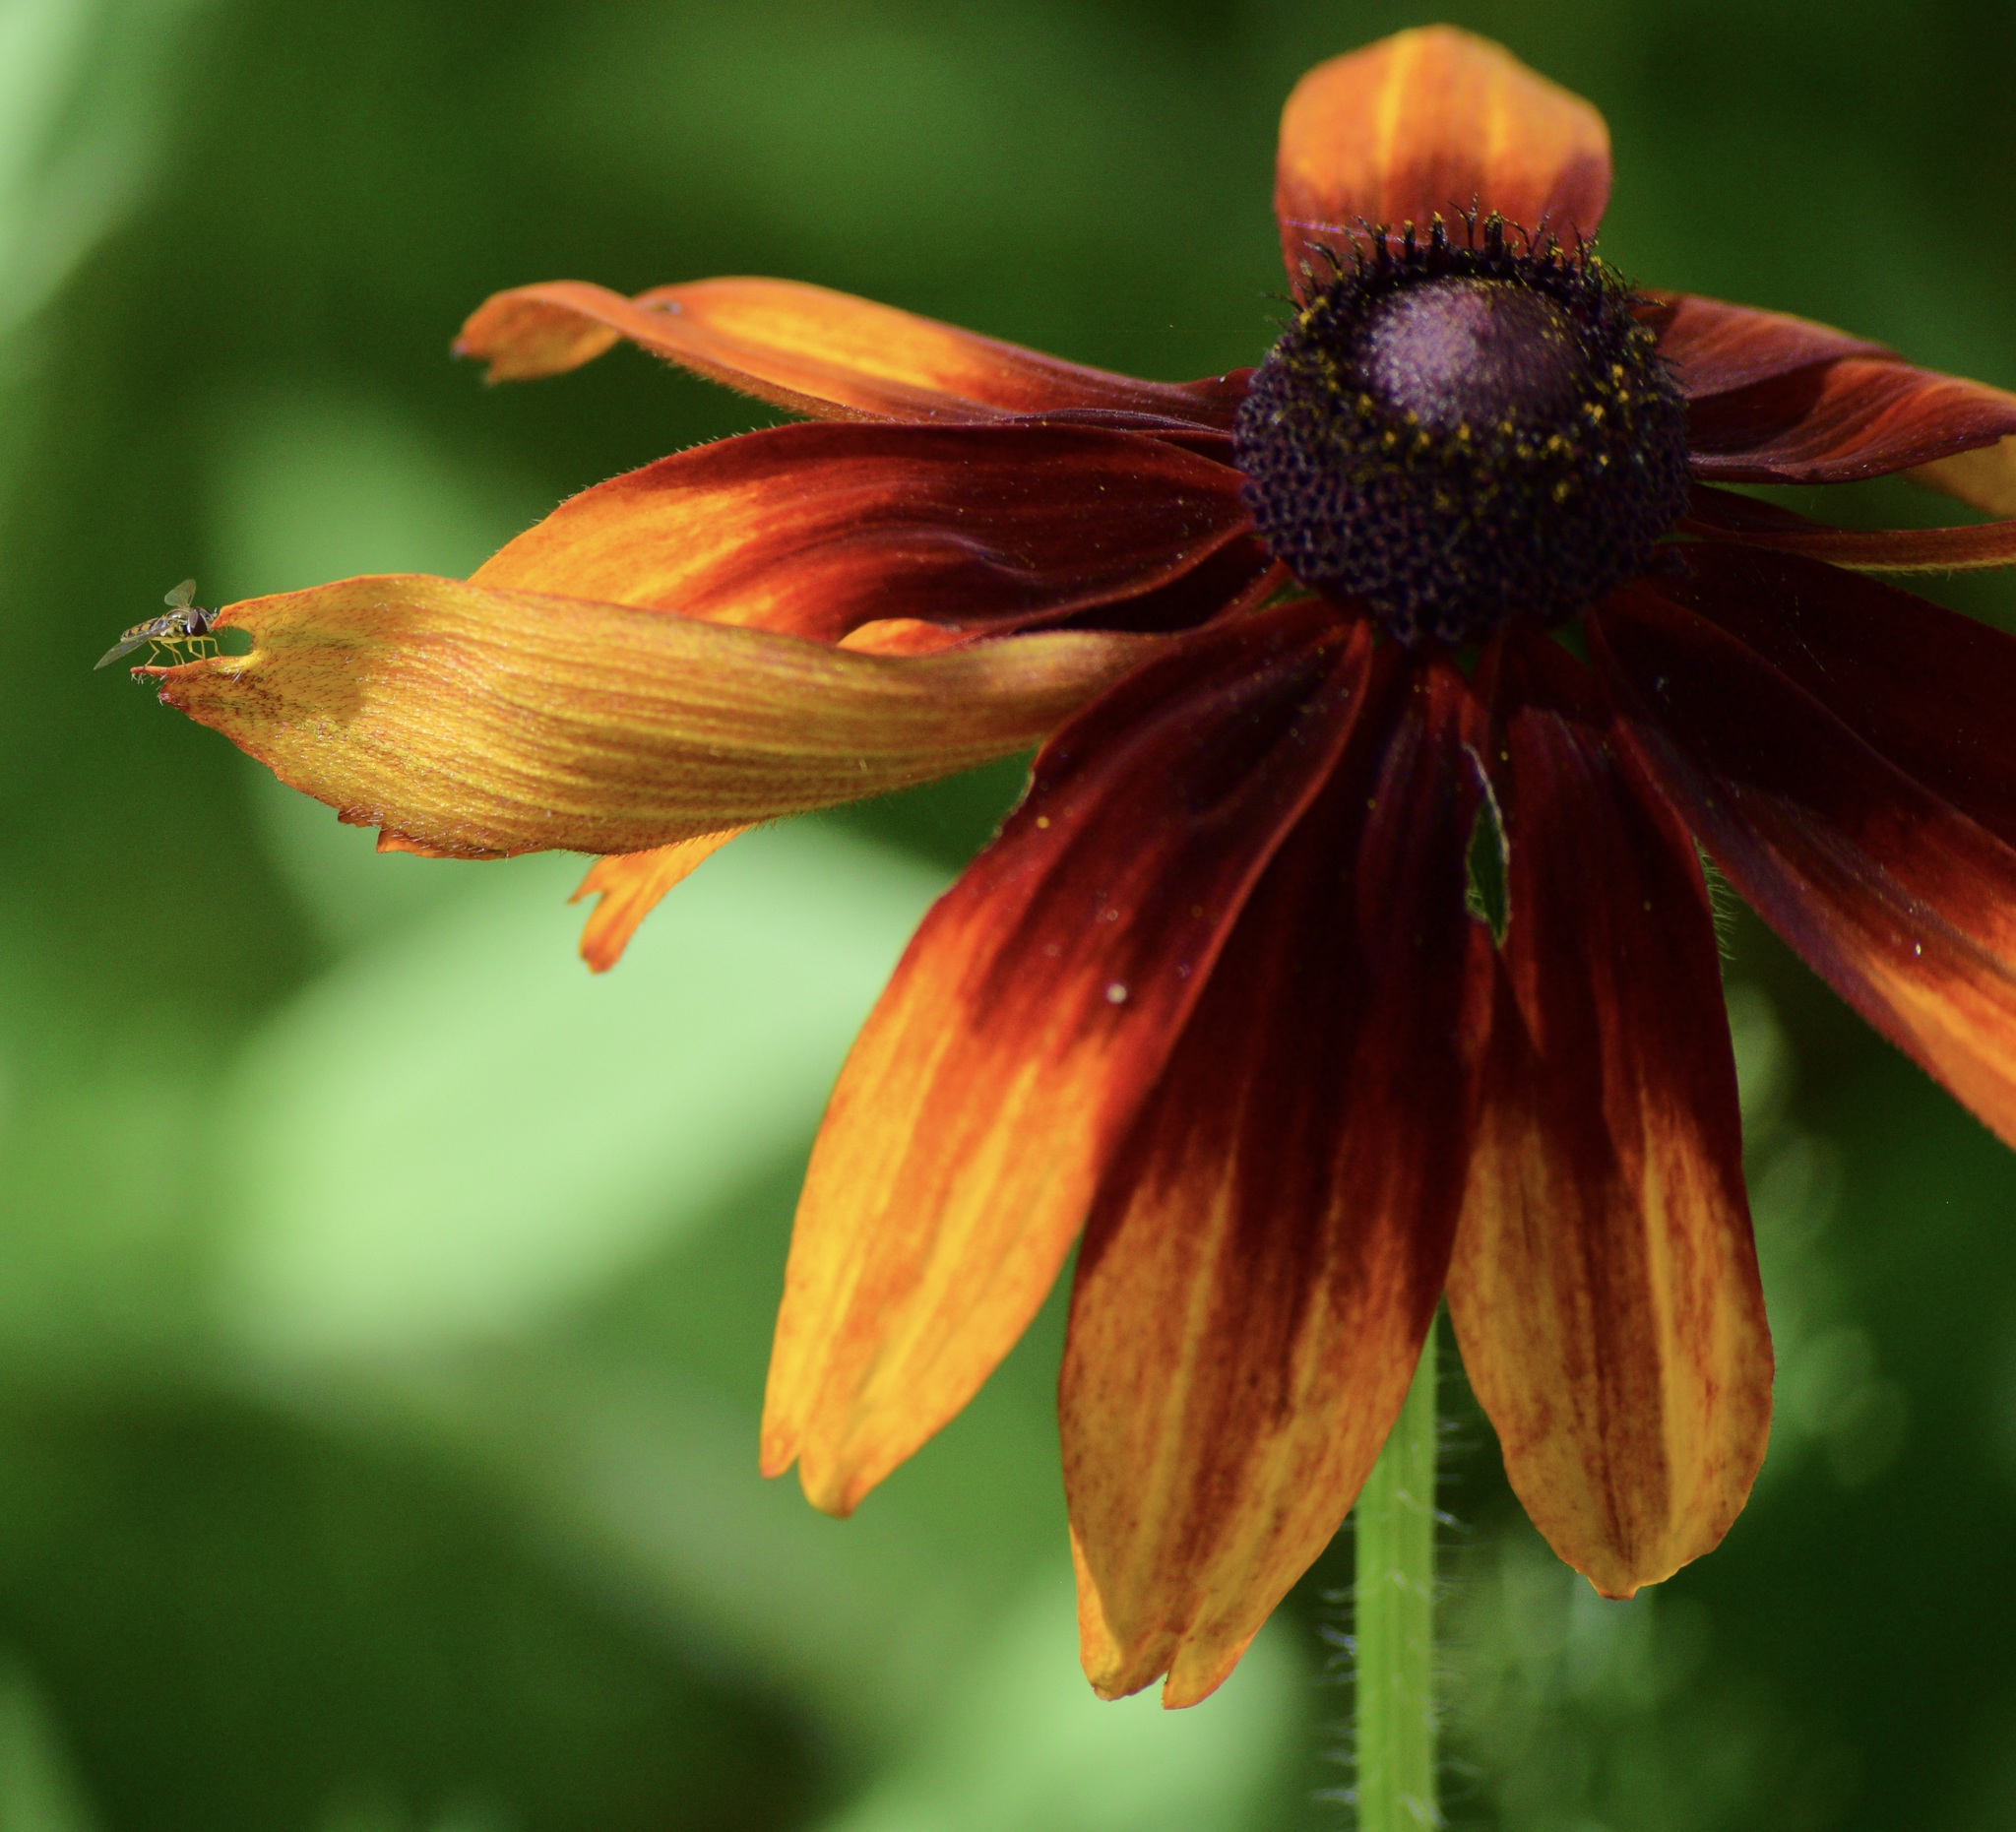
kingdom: Animalia
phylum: Arthropoda
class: Insecta
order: Diptera
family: Syrphidae
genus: Toxomerus
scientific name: Toxomerus marginatus
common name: Syrphid fly
